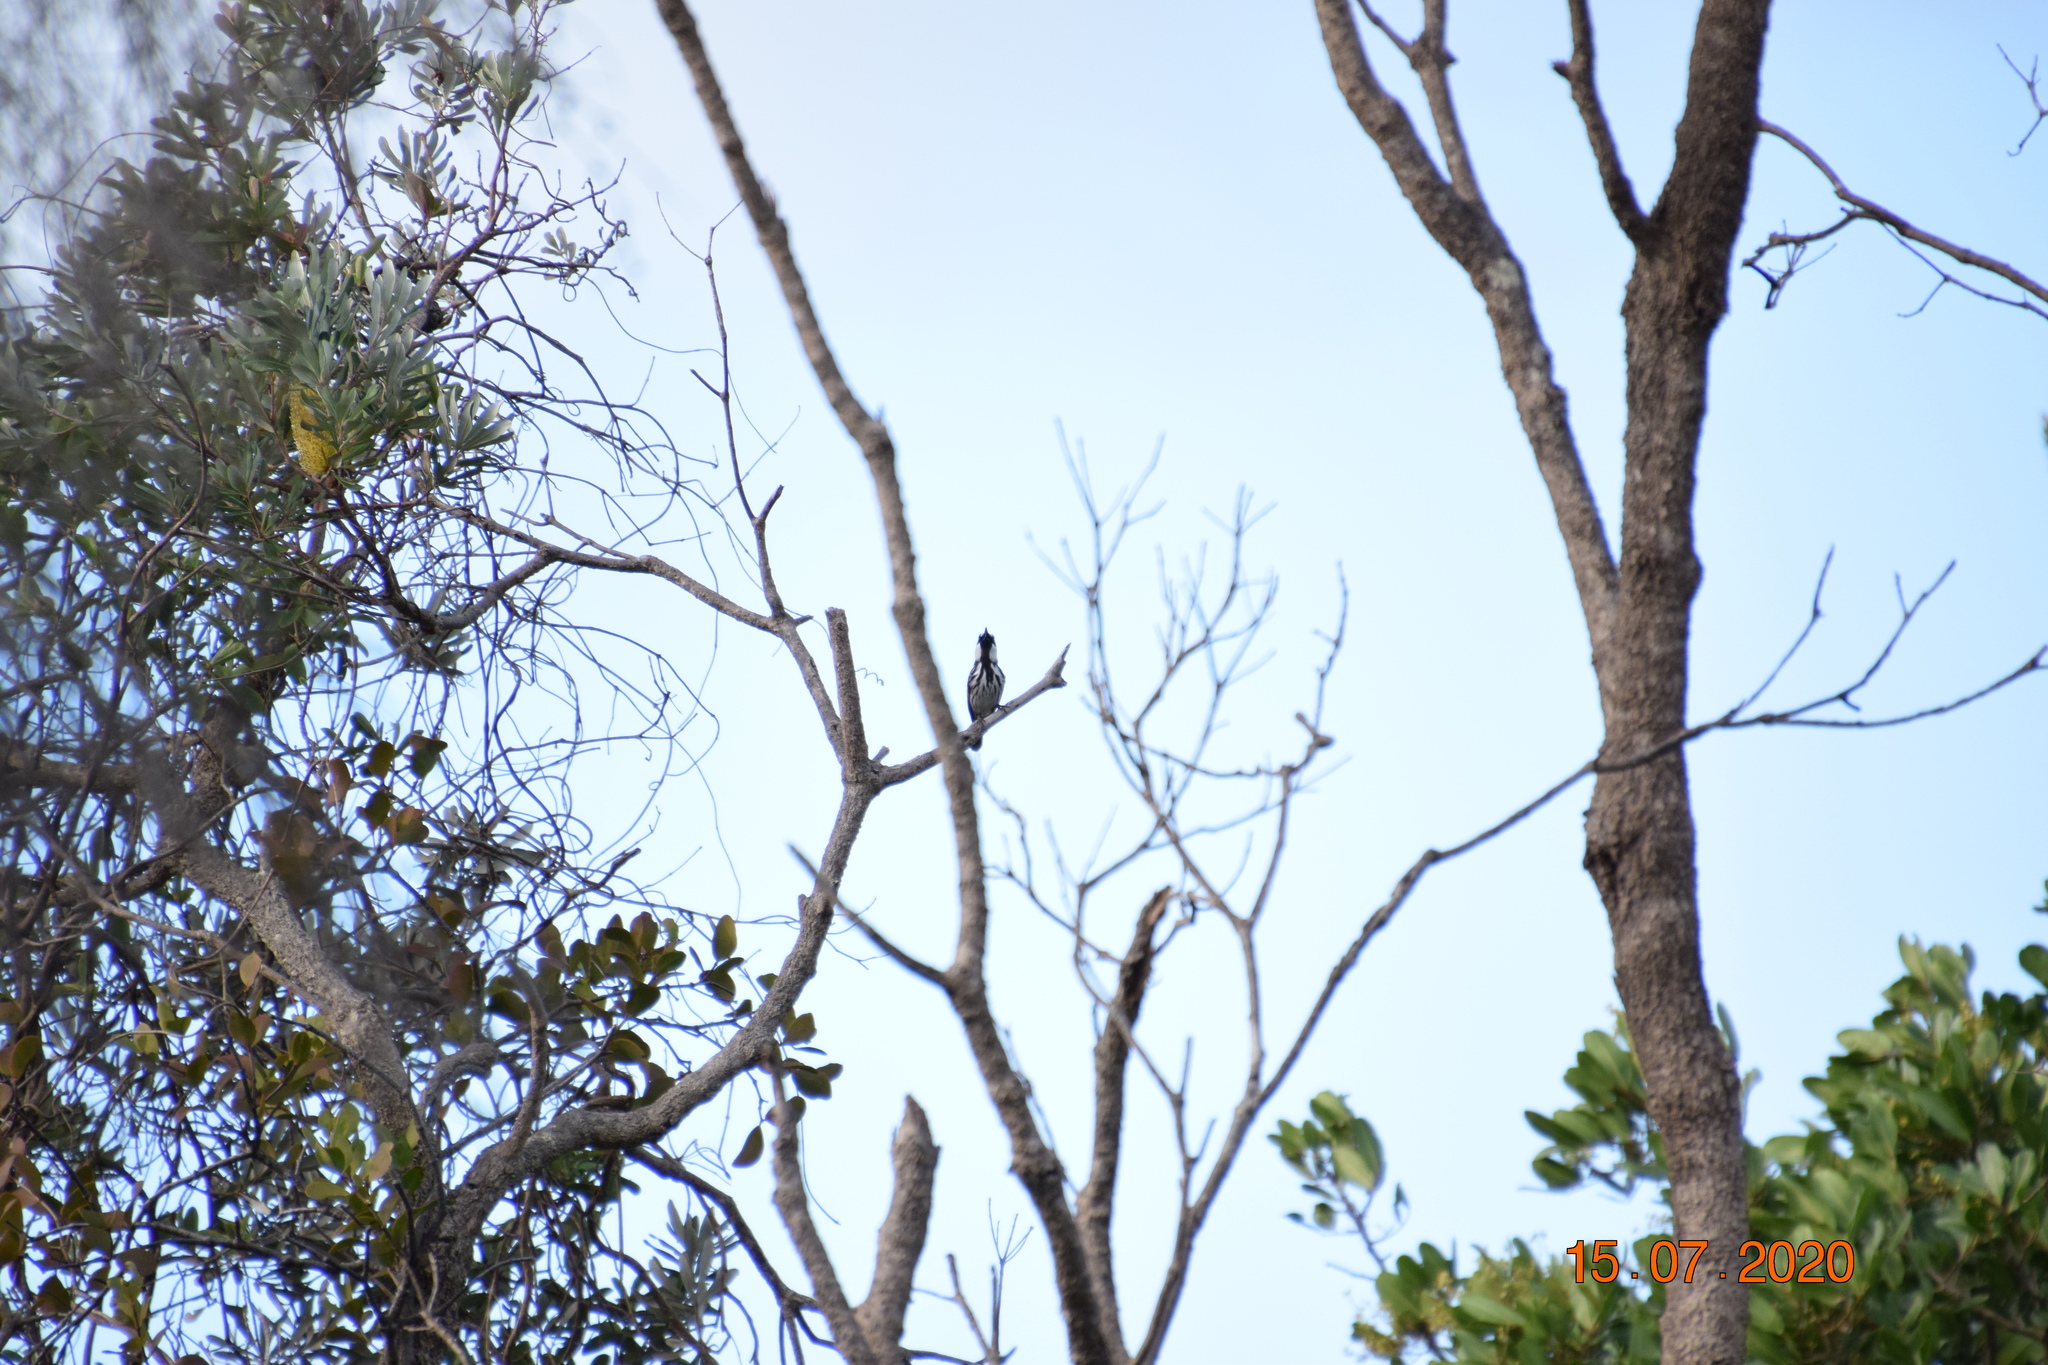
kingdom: Animalia
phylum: Chordata
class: Aves
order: Passeriformes
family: Meliphagidae
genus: Phylidonyris
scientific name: Phylidonyris niger
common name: White-cheeked honeyeater
